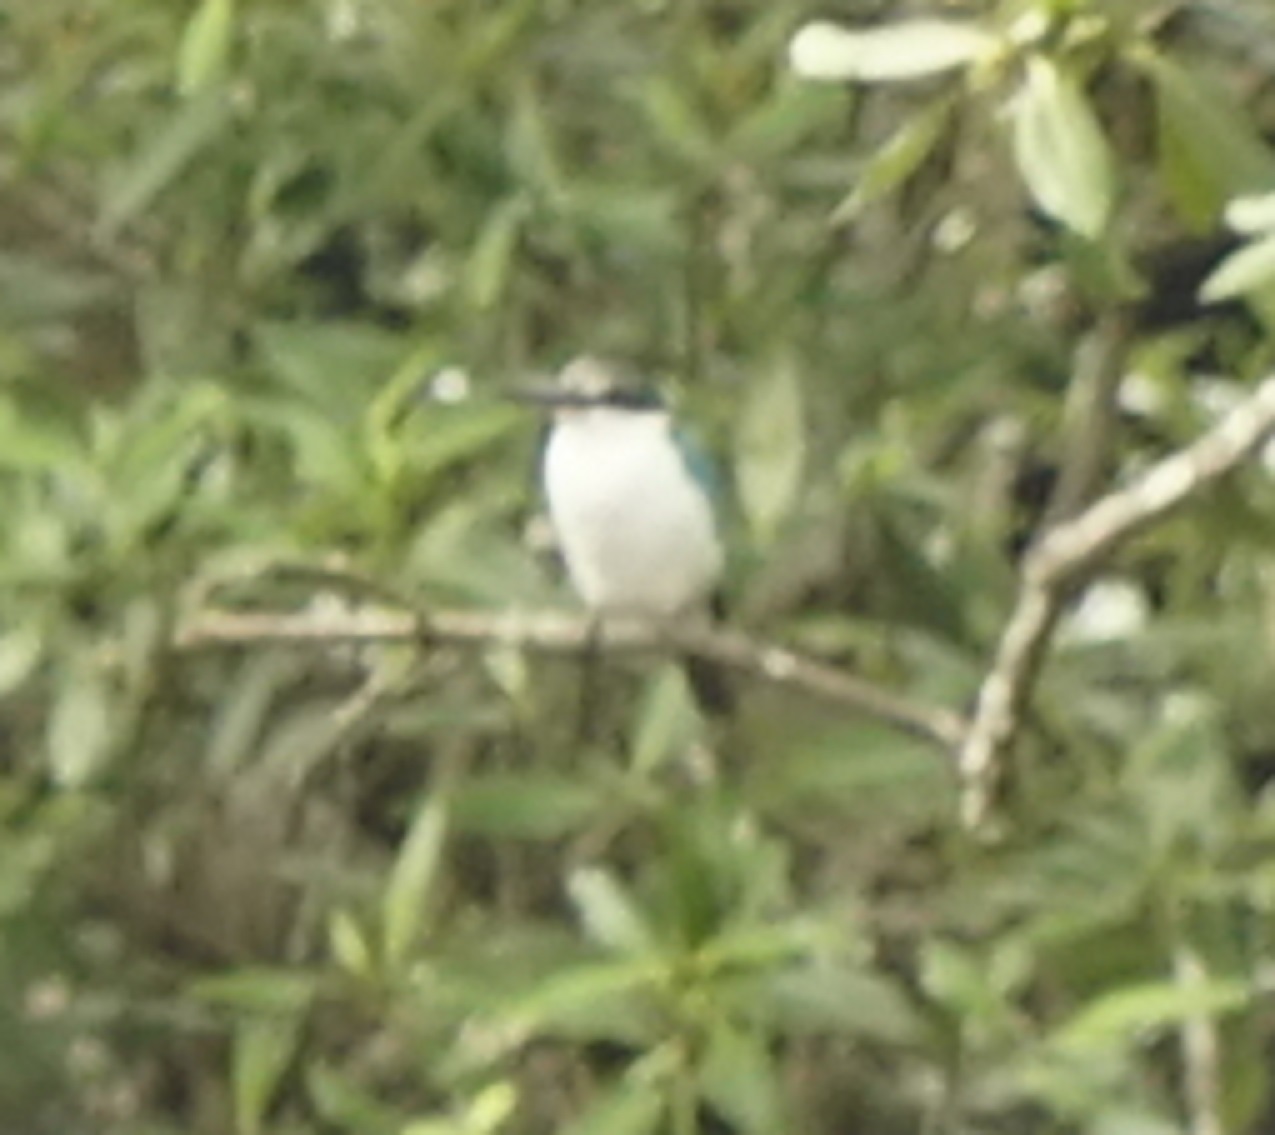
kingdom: Animalia
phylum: Chordata
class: Aves
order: Coraciiformes
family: Alcedinidae
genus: Todiramphus
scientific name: Todiramphus chloris
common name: Collared kingfisher
